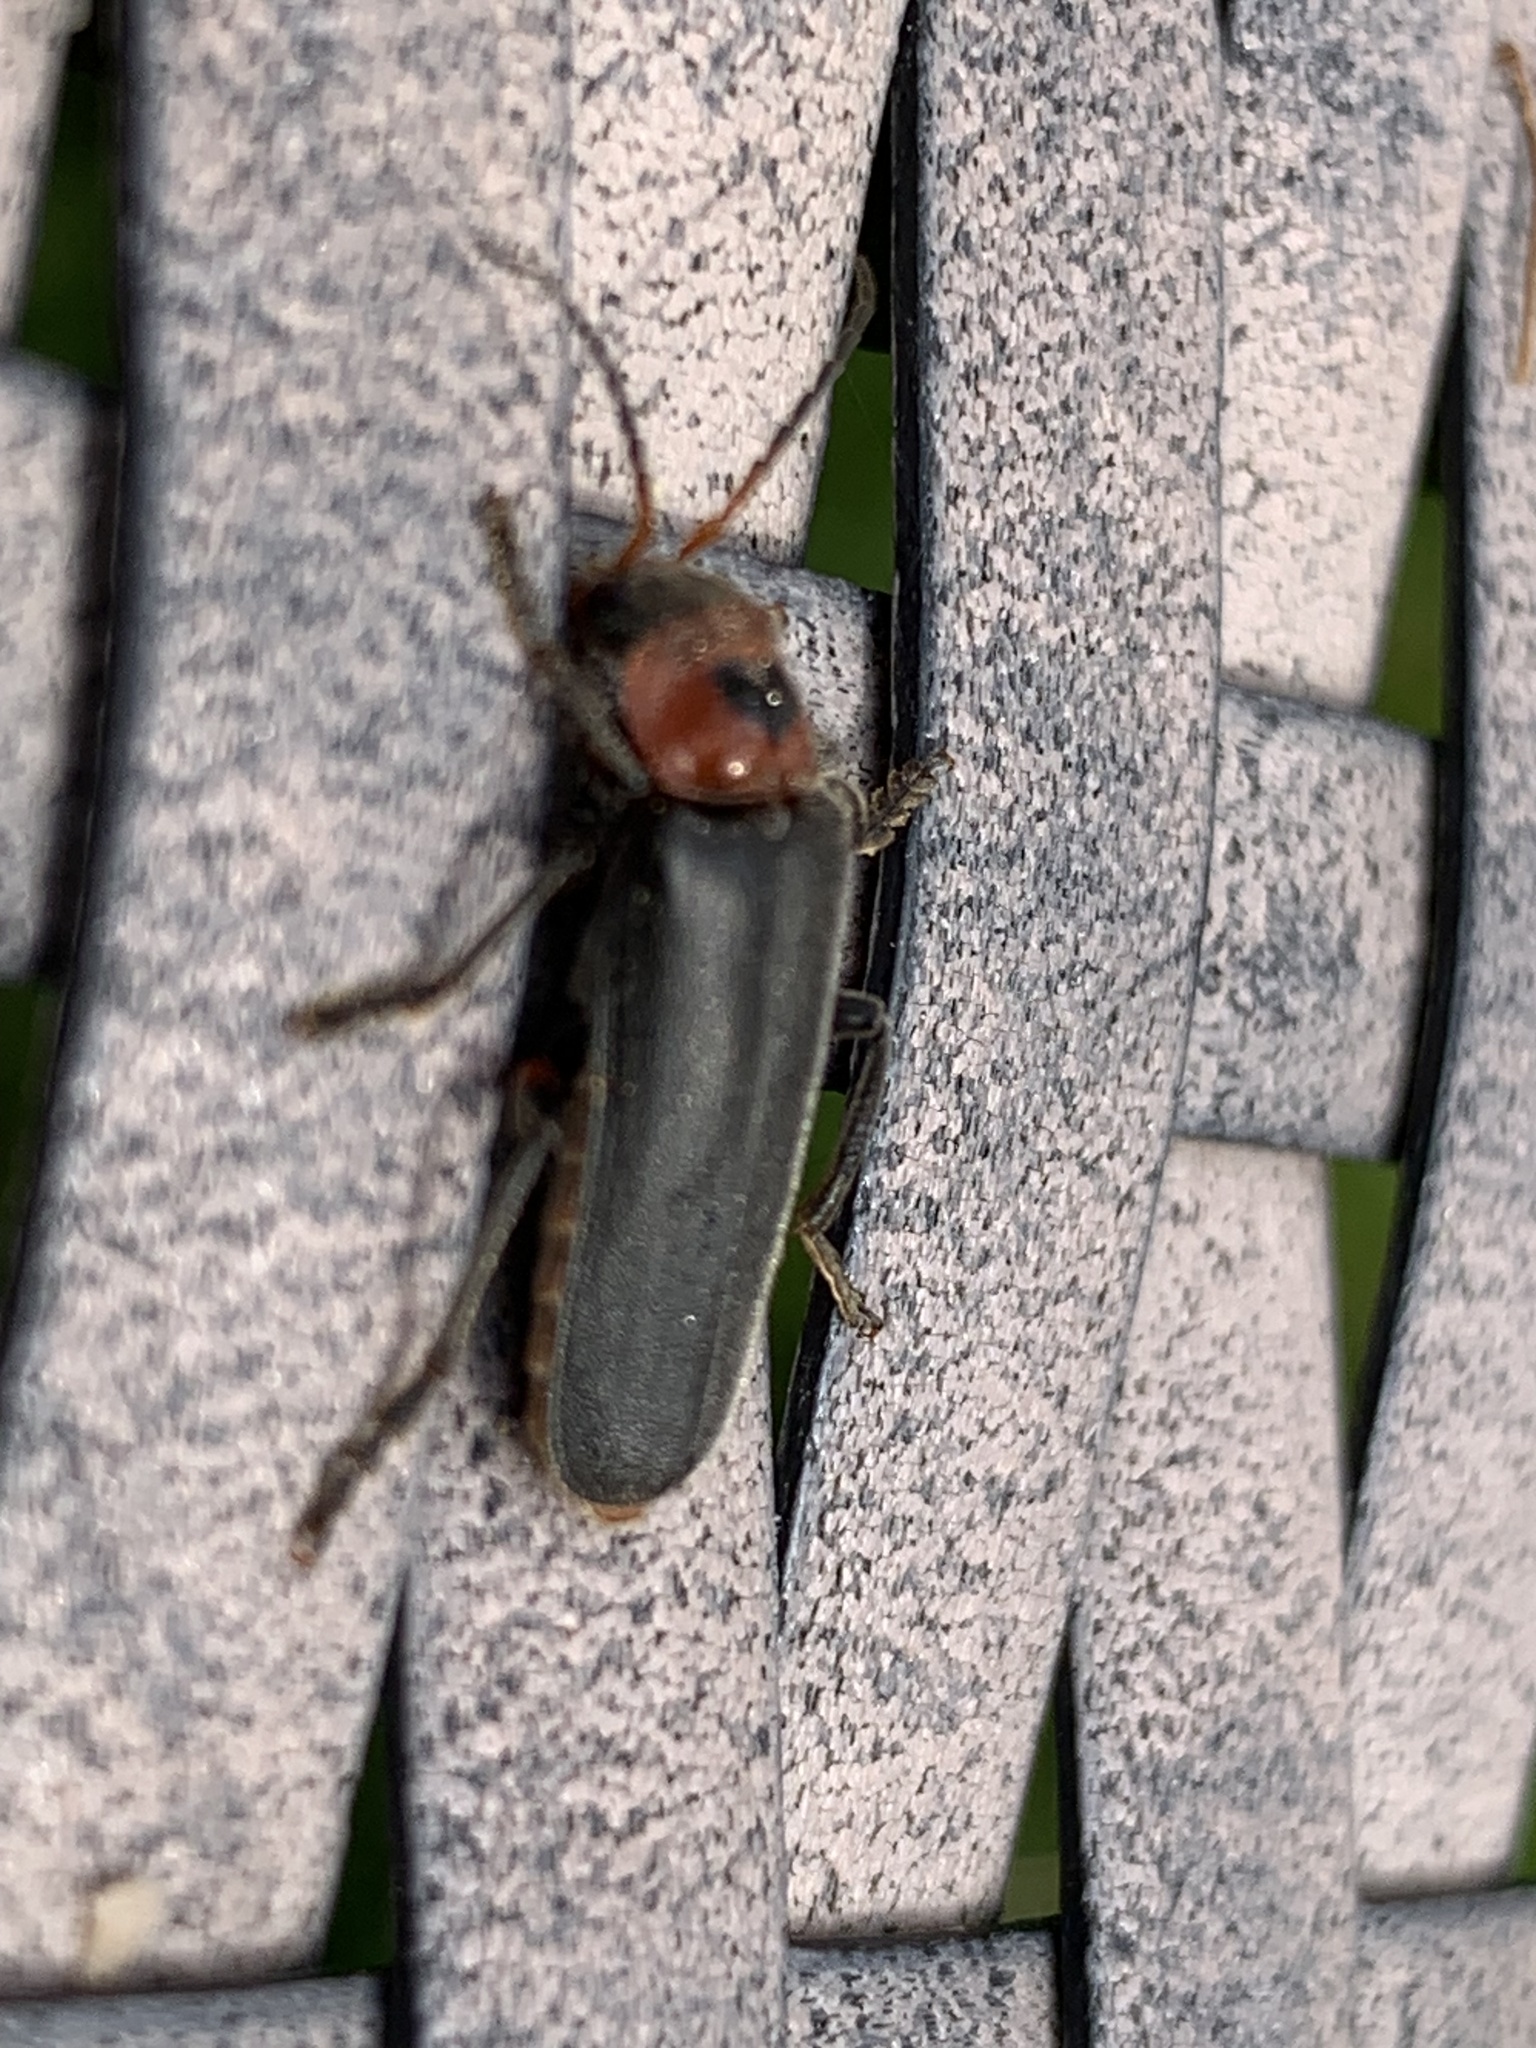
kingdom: Animalia
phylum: Arthropoda
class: Insecta
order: Coleoptera
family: Cantharidae
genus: Cantharis
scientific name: Cantharis rustica
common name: Soldier beetle
